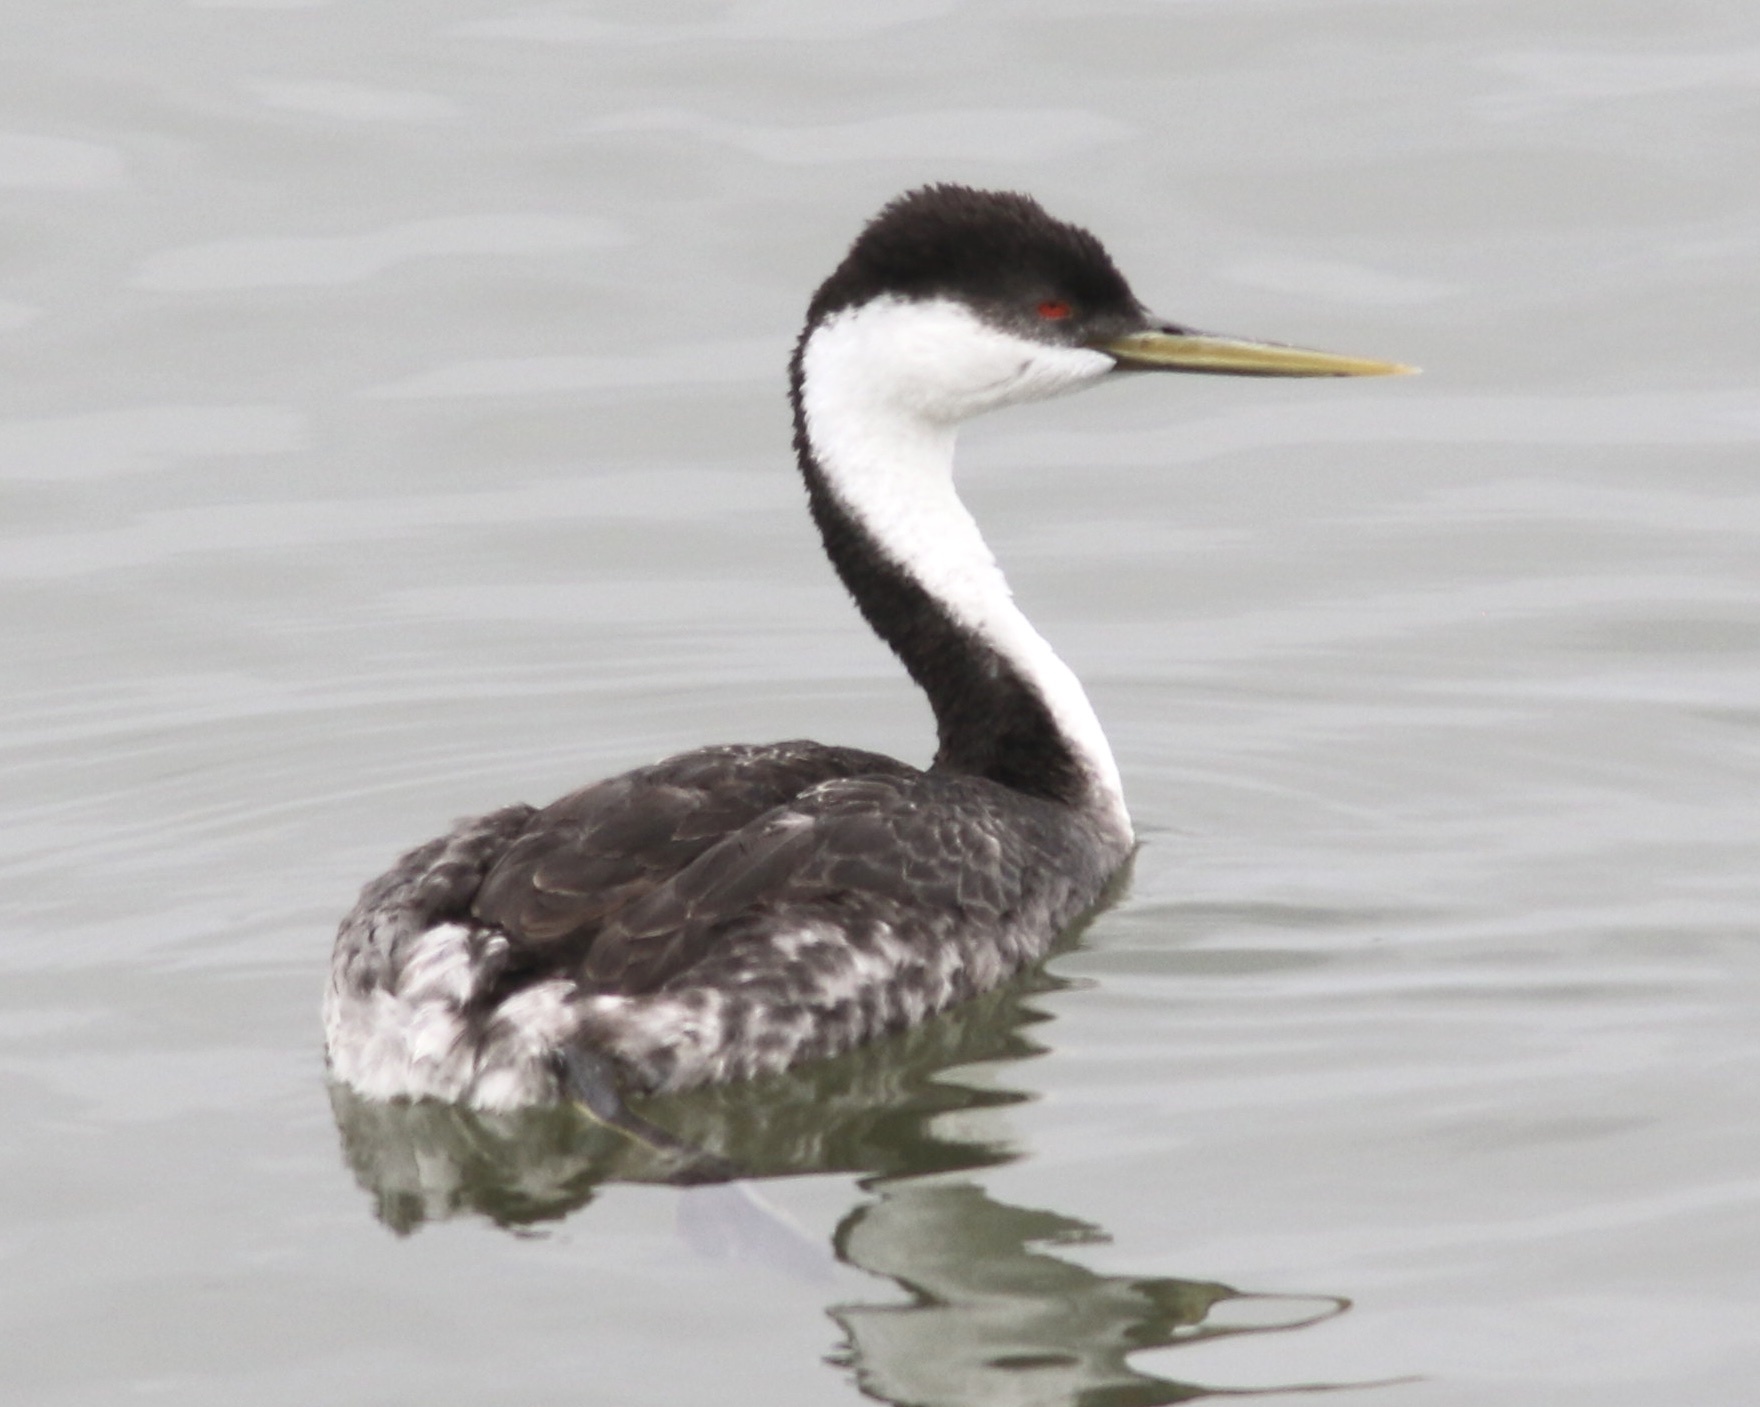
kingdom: Animalia
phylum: Chordata
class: Aves
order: Podicipediformes
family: Podicipedidae
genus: Aechmophorus
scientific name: Aechmophorus occidentalis
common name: Western grebe
